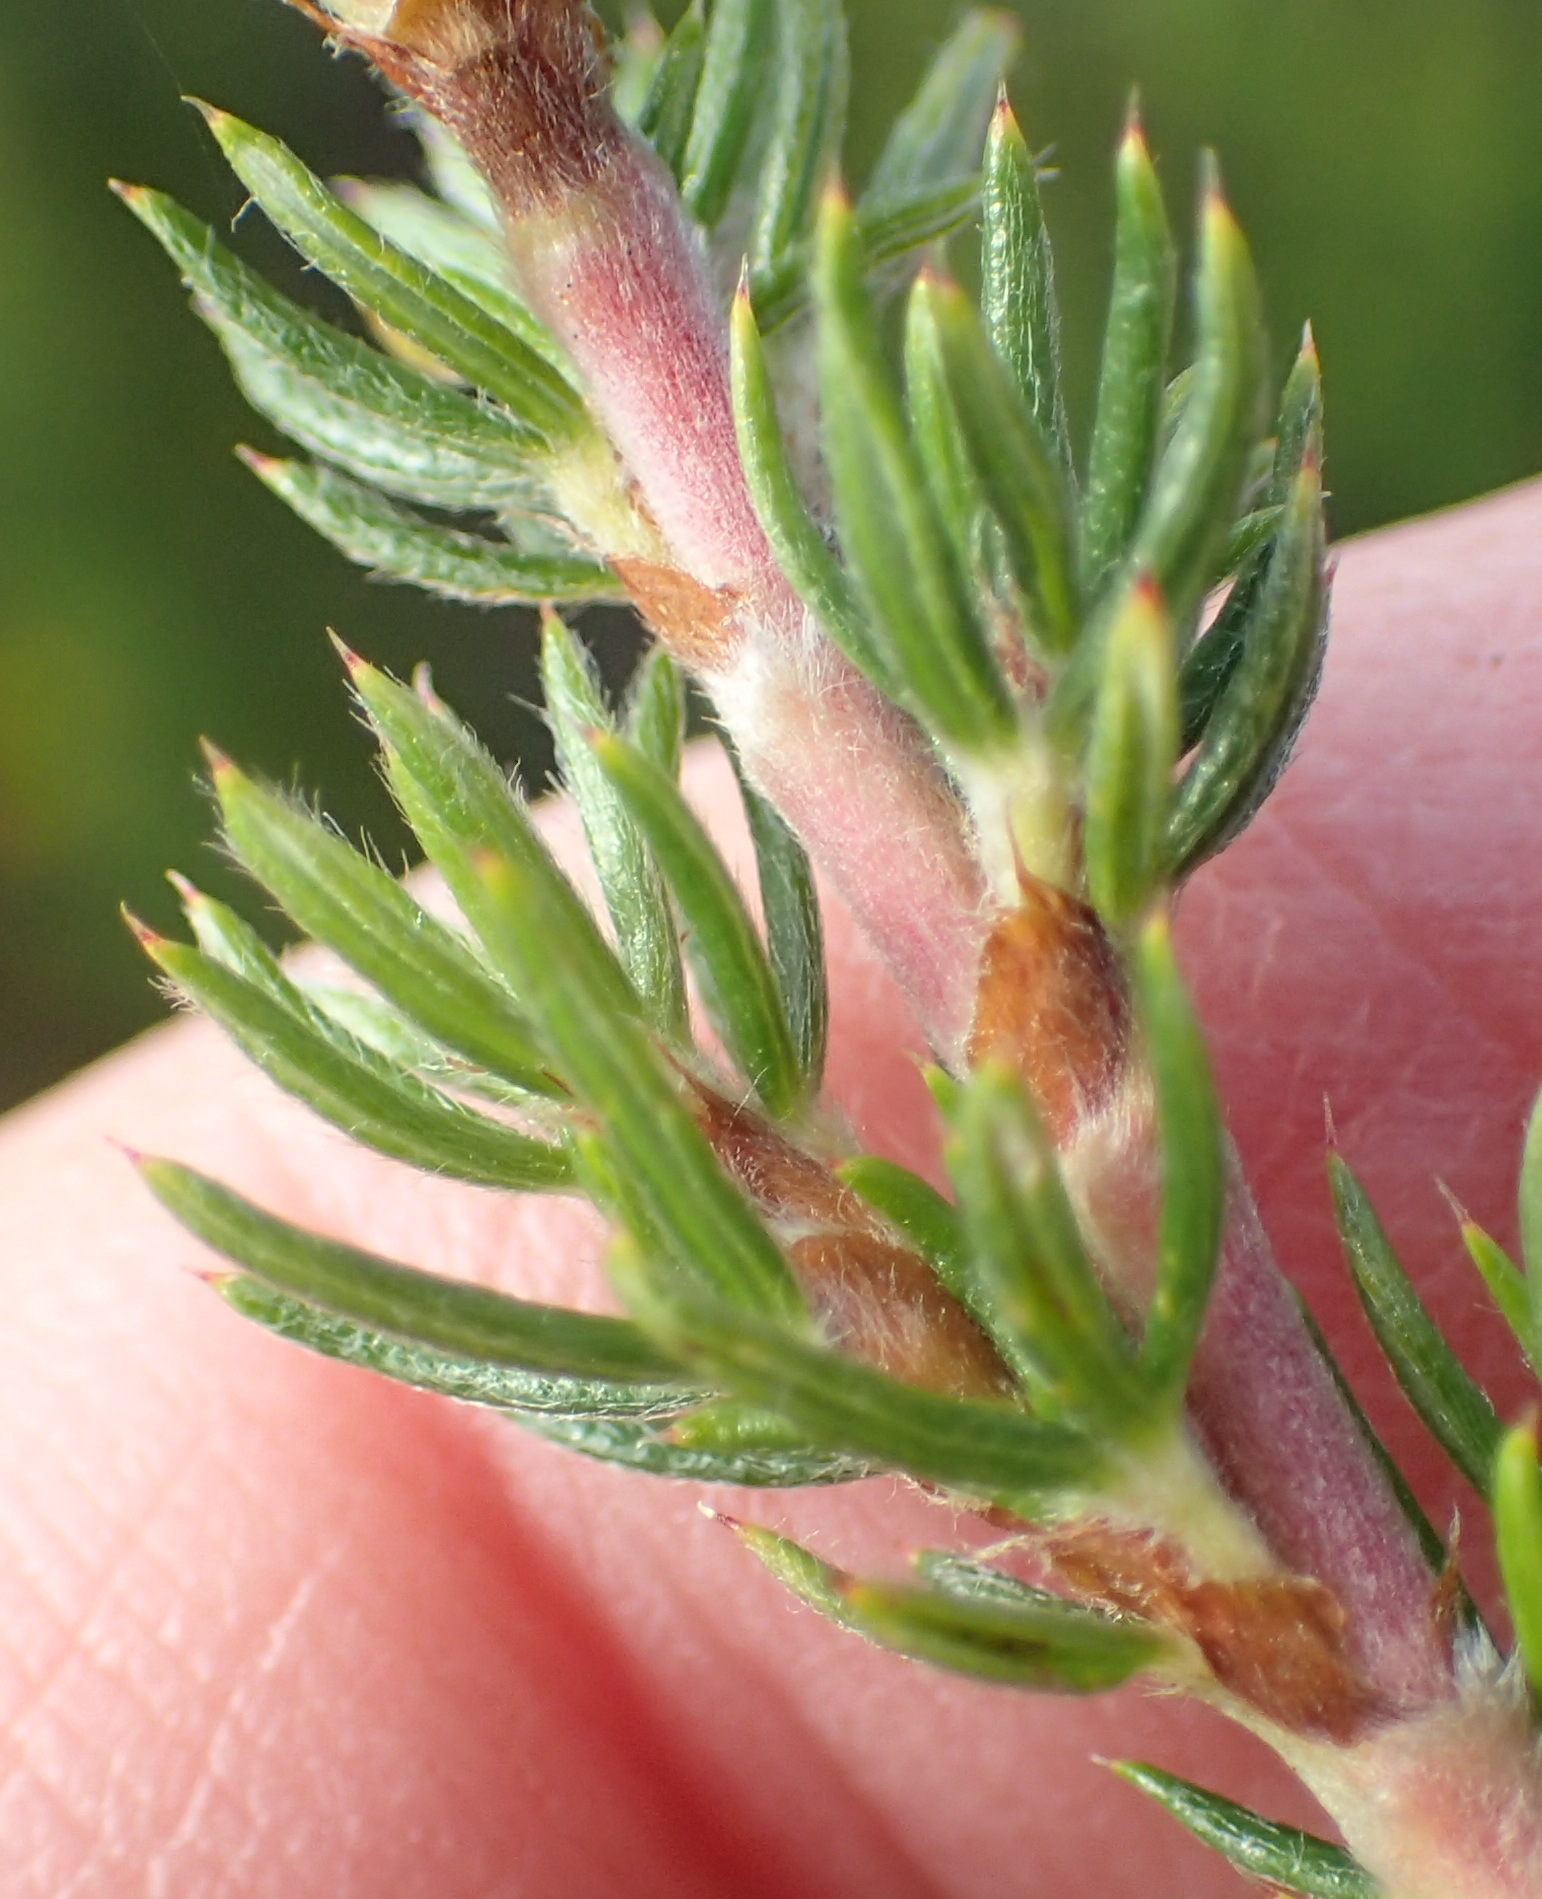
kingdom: Plantae
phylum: Tracheophyta
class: Magnoliopsida
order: Rosales
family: Rosaceae
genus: Cliffortia
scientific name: Cliffortia stricta
